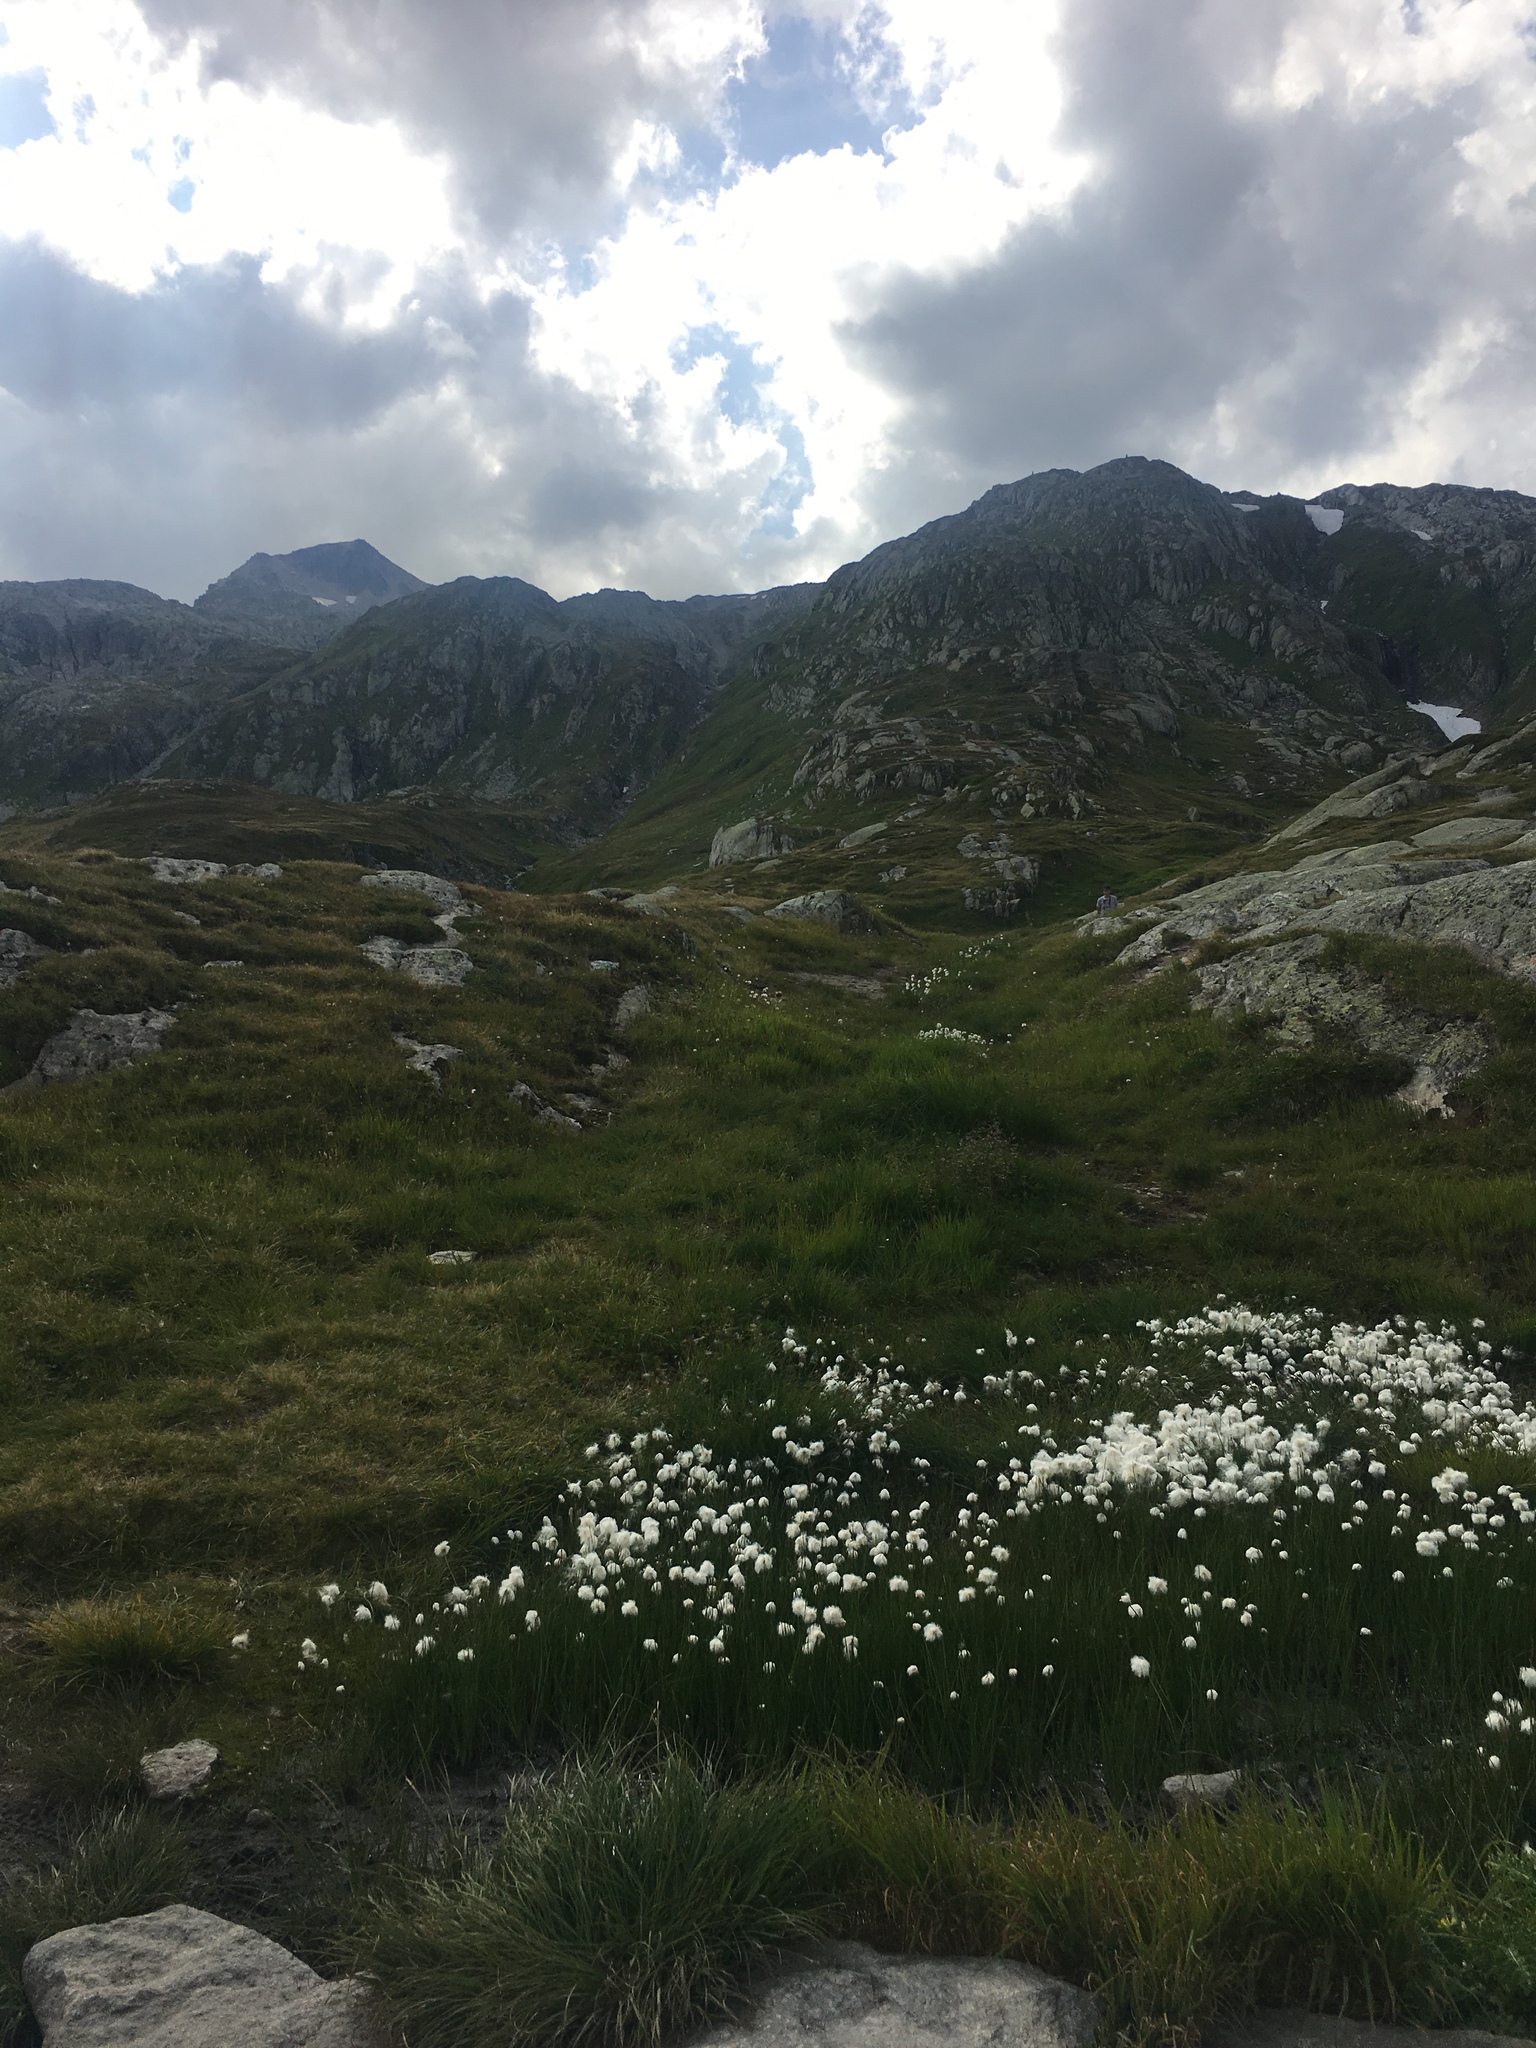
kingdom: Plantae
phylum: Tracheophyta
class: Liliopsida
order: Poales
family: Cyperaceae
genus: Eriophorum
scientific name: Eriophorum scheuchzeri
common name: Scheuchzer's cottongrass
